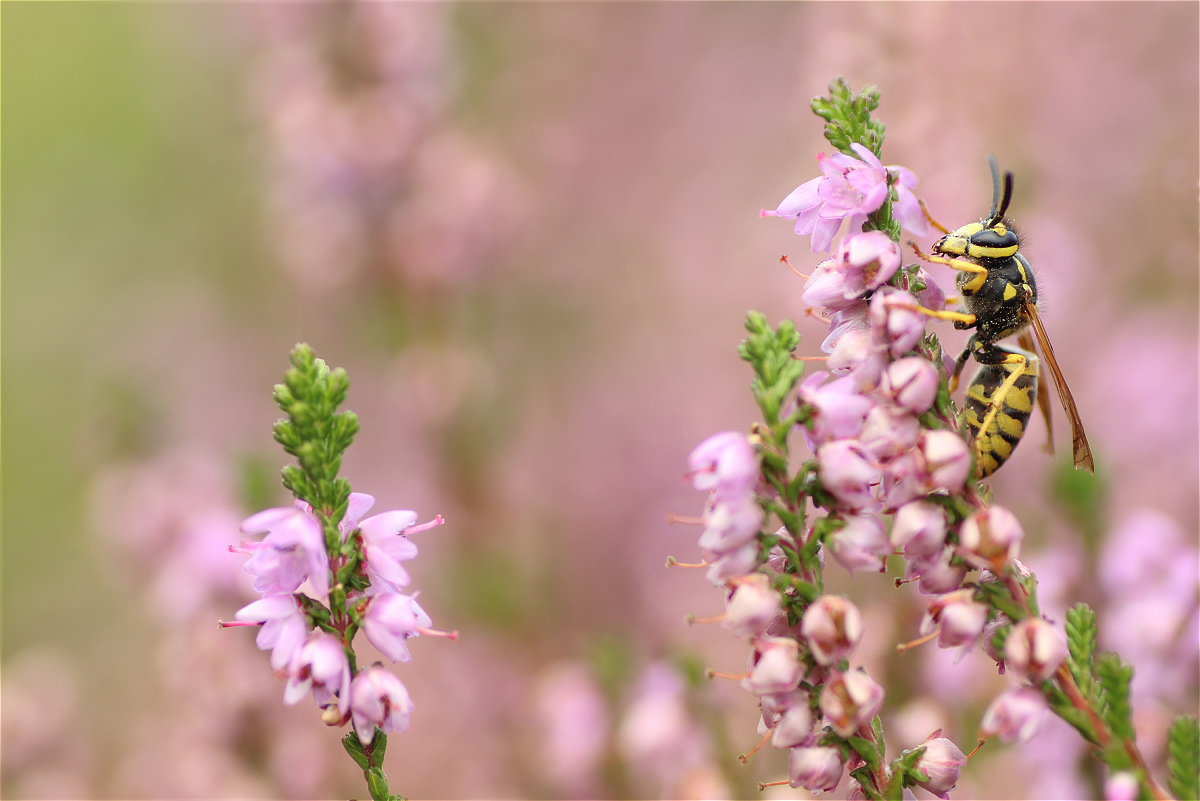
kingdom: Animalia
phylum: Arthropoda
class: Insecta
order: Hymenoptera
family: Vespidae
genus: Vespula
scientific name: Vespula germanica
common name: German wasp
